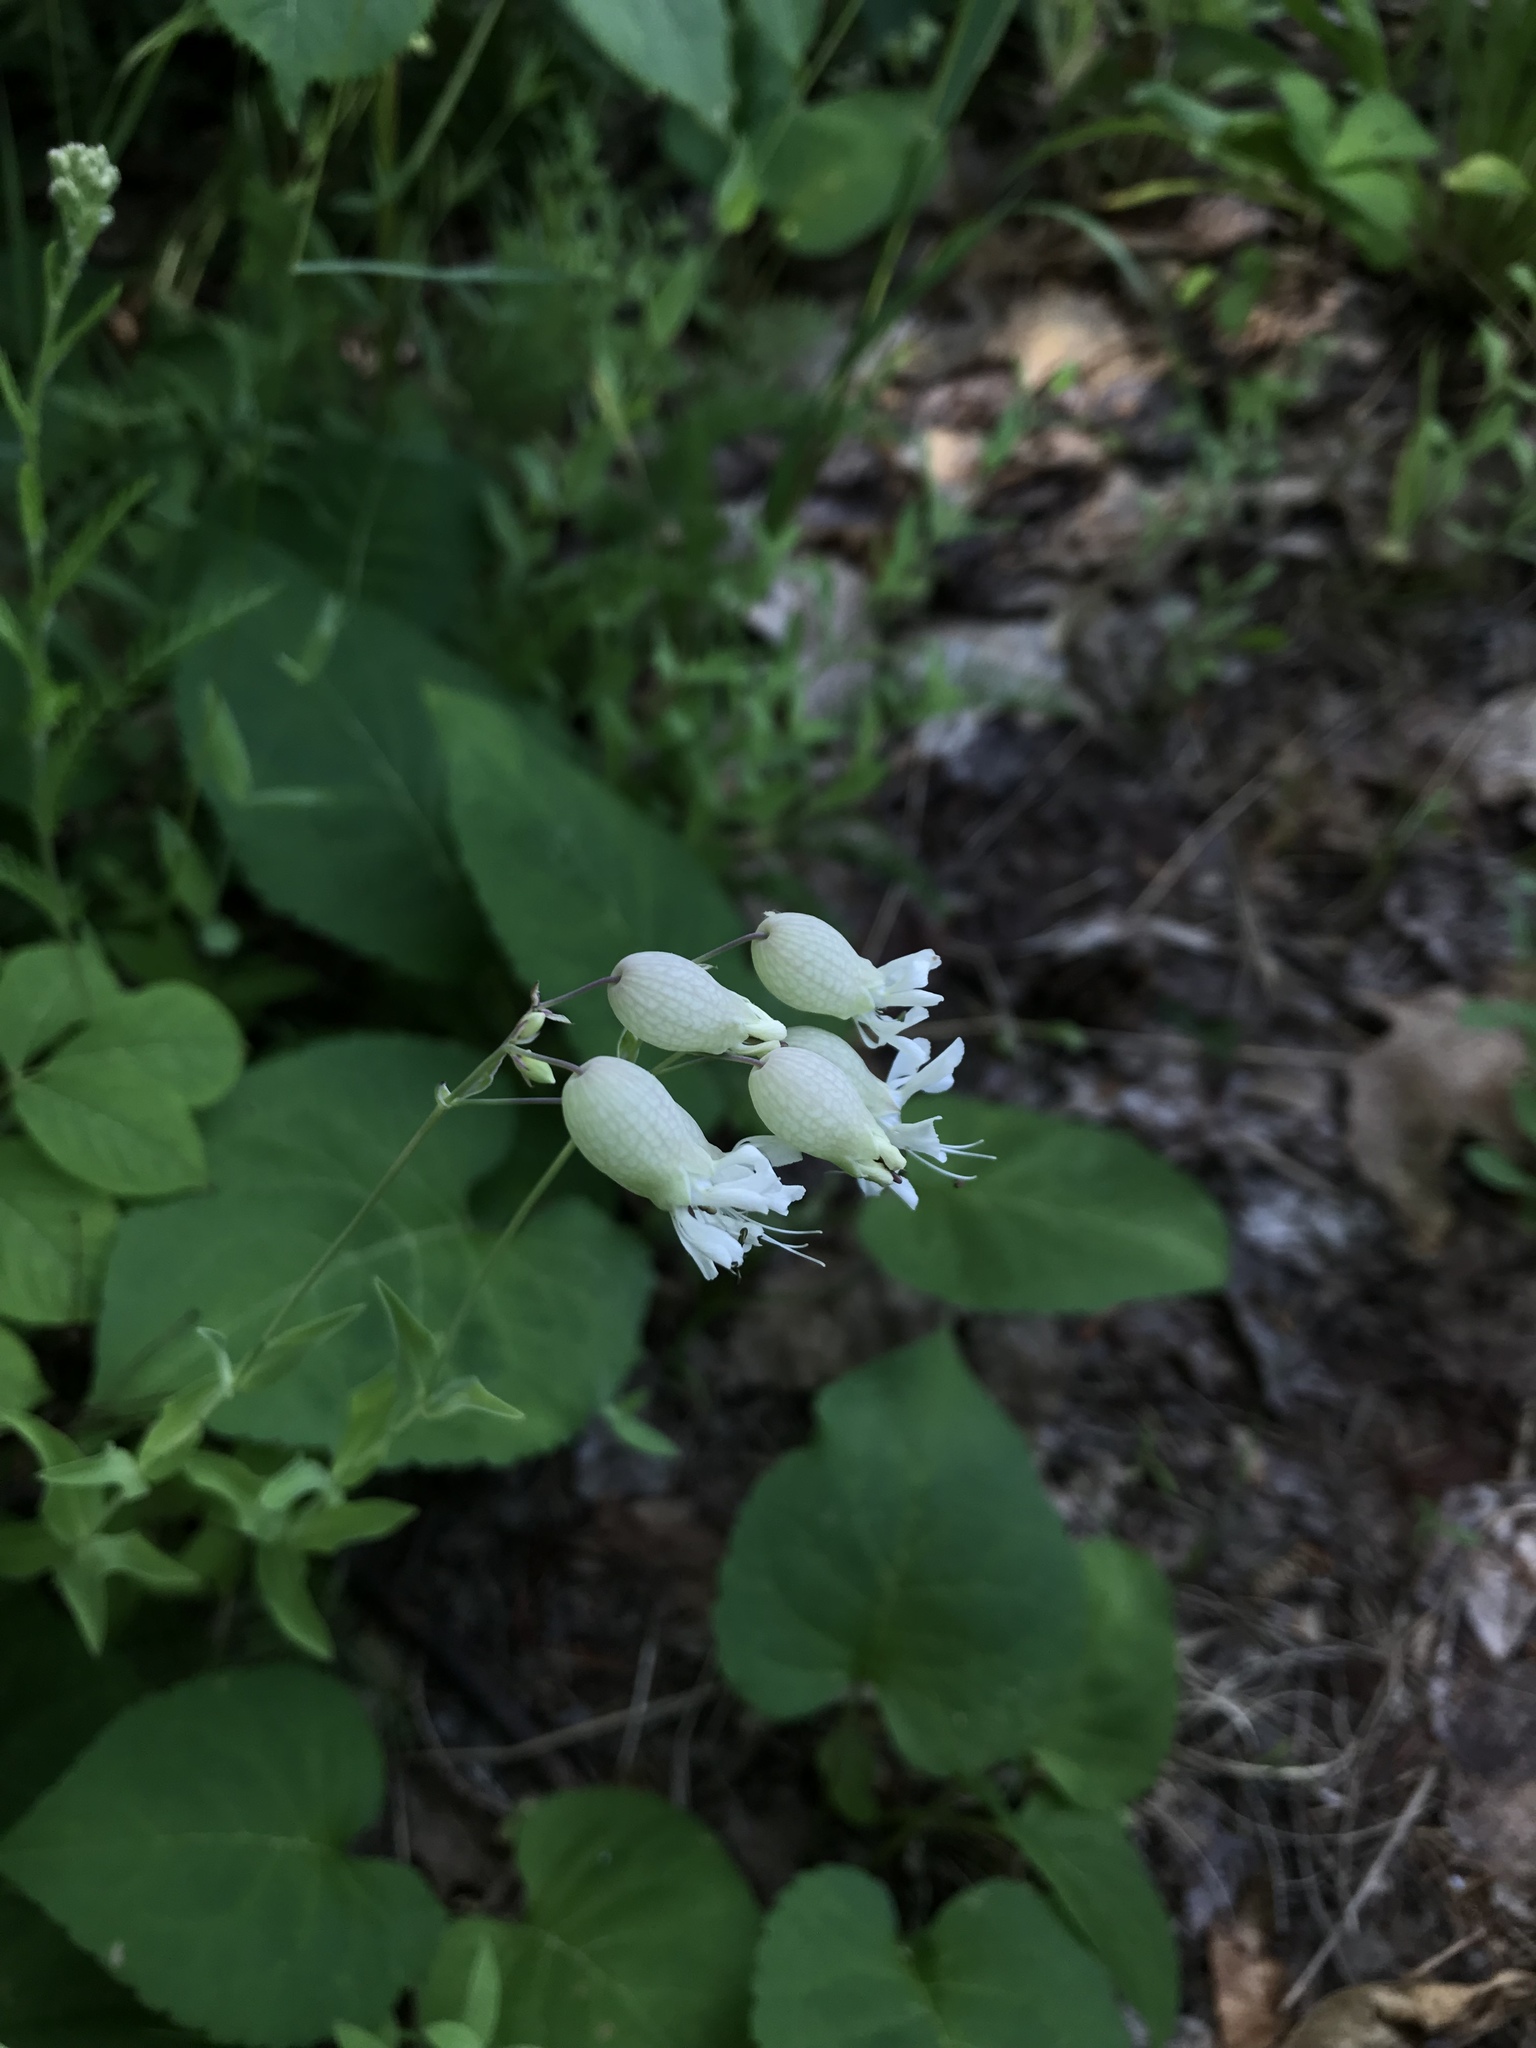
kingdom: Plantae
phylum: Tracheophyta
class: Magnoliopsida
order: Caryophyllales
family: Caryophyllaceae
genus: Silene
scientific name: Silene vulgaris
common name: Bladder campion
